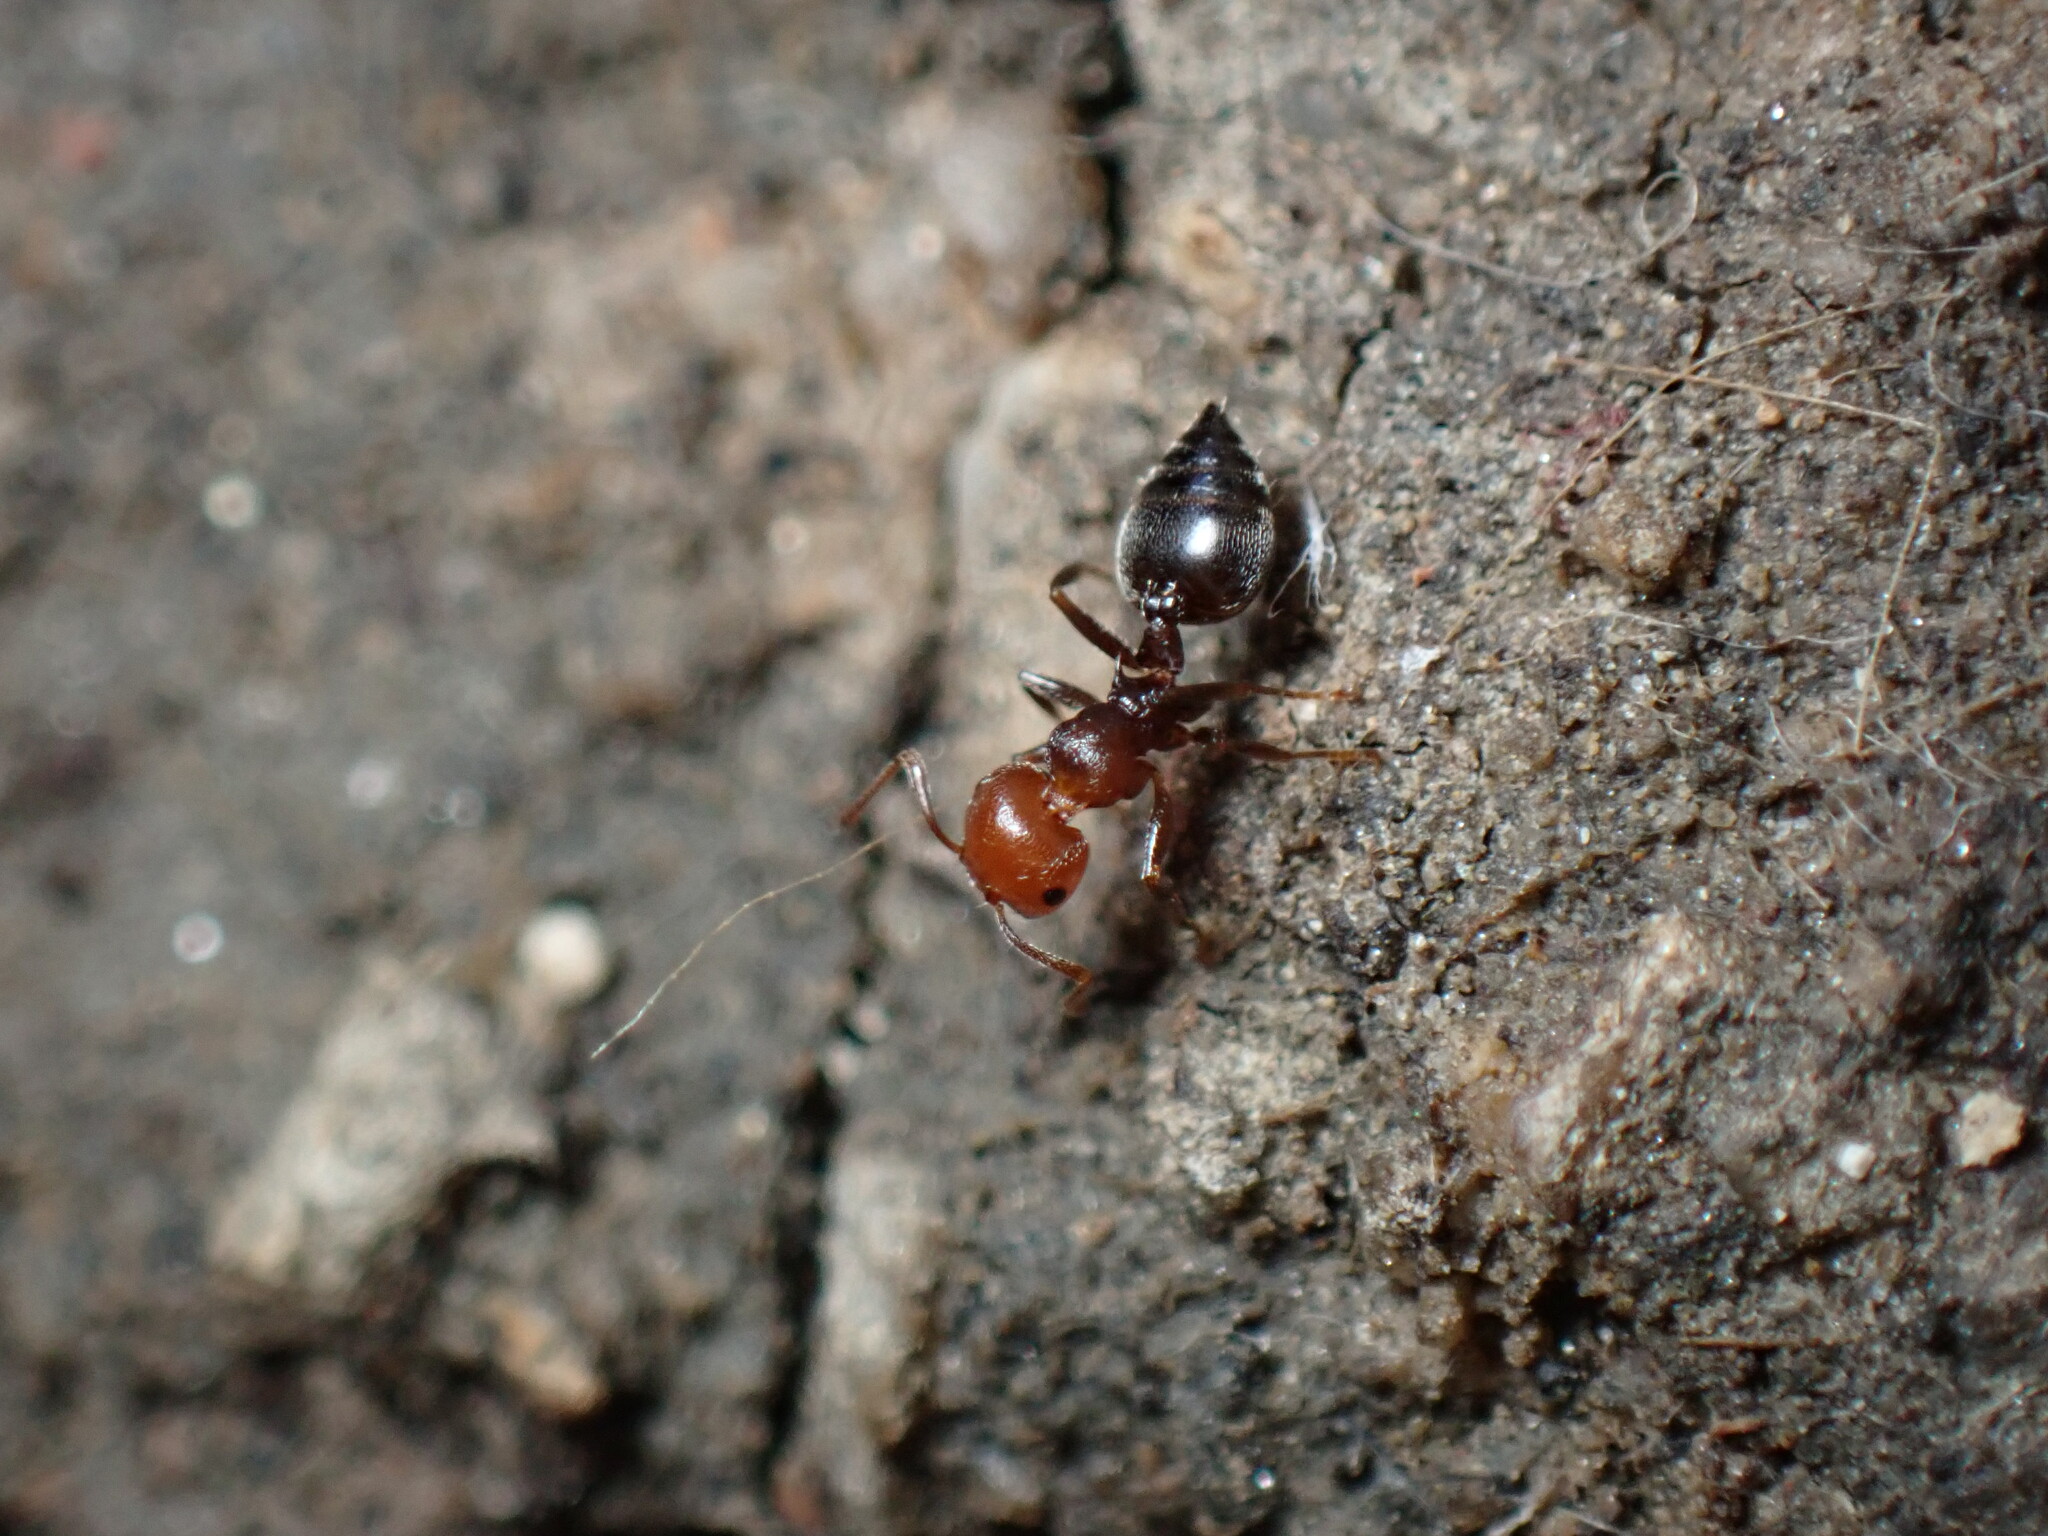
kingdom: Animalia
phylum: Arthropoda
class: Insecta
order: Hymenoptera
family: Formicidae
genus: Crematogaster
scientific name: Crematogaster scutellaris
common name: Fourmi du liège
